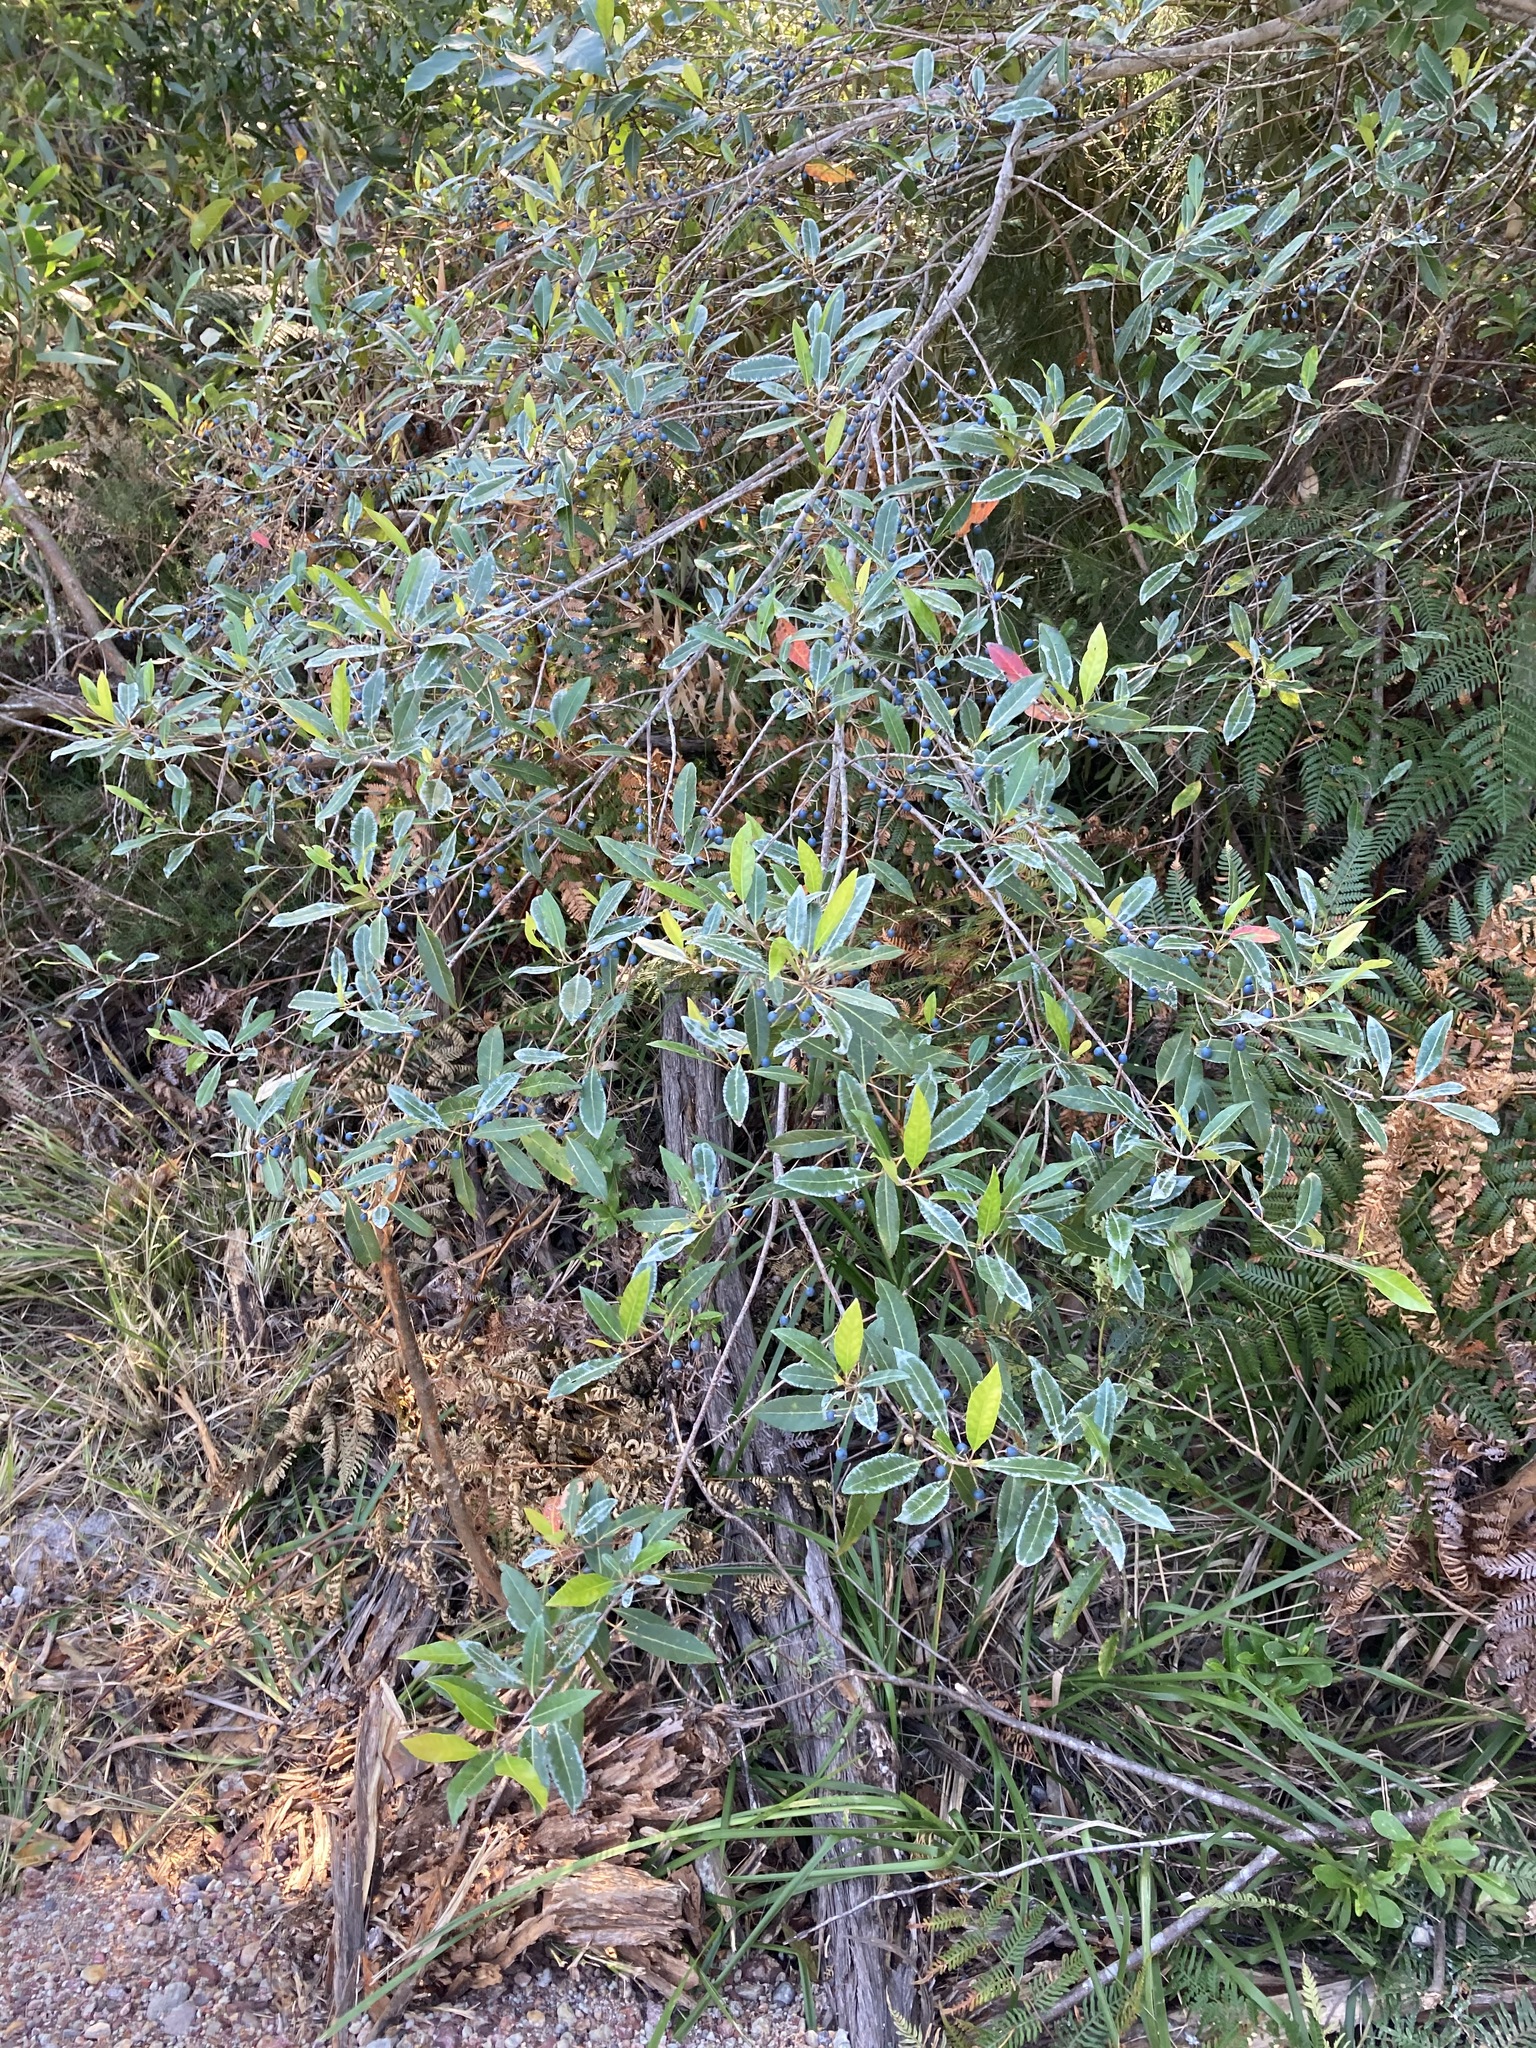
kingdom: Plantae
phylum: Tracheophyta
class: Magnoliopsida
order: Oxalidales
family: Elaeocarpaceae
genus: Elaeocarpus
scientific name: Elaeocarpus reticulatus
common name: Ash quandong
